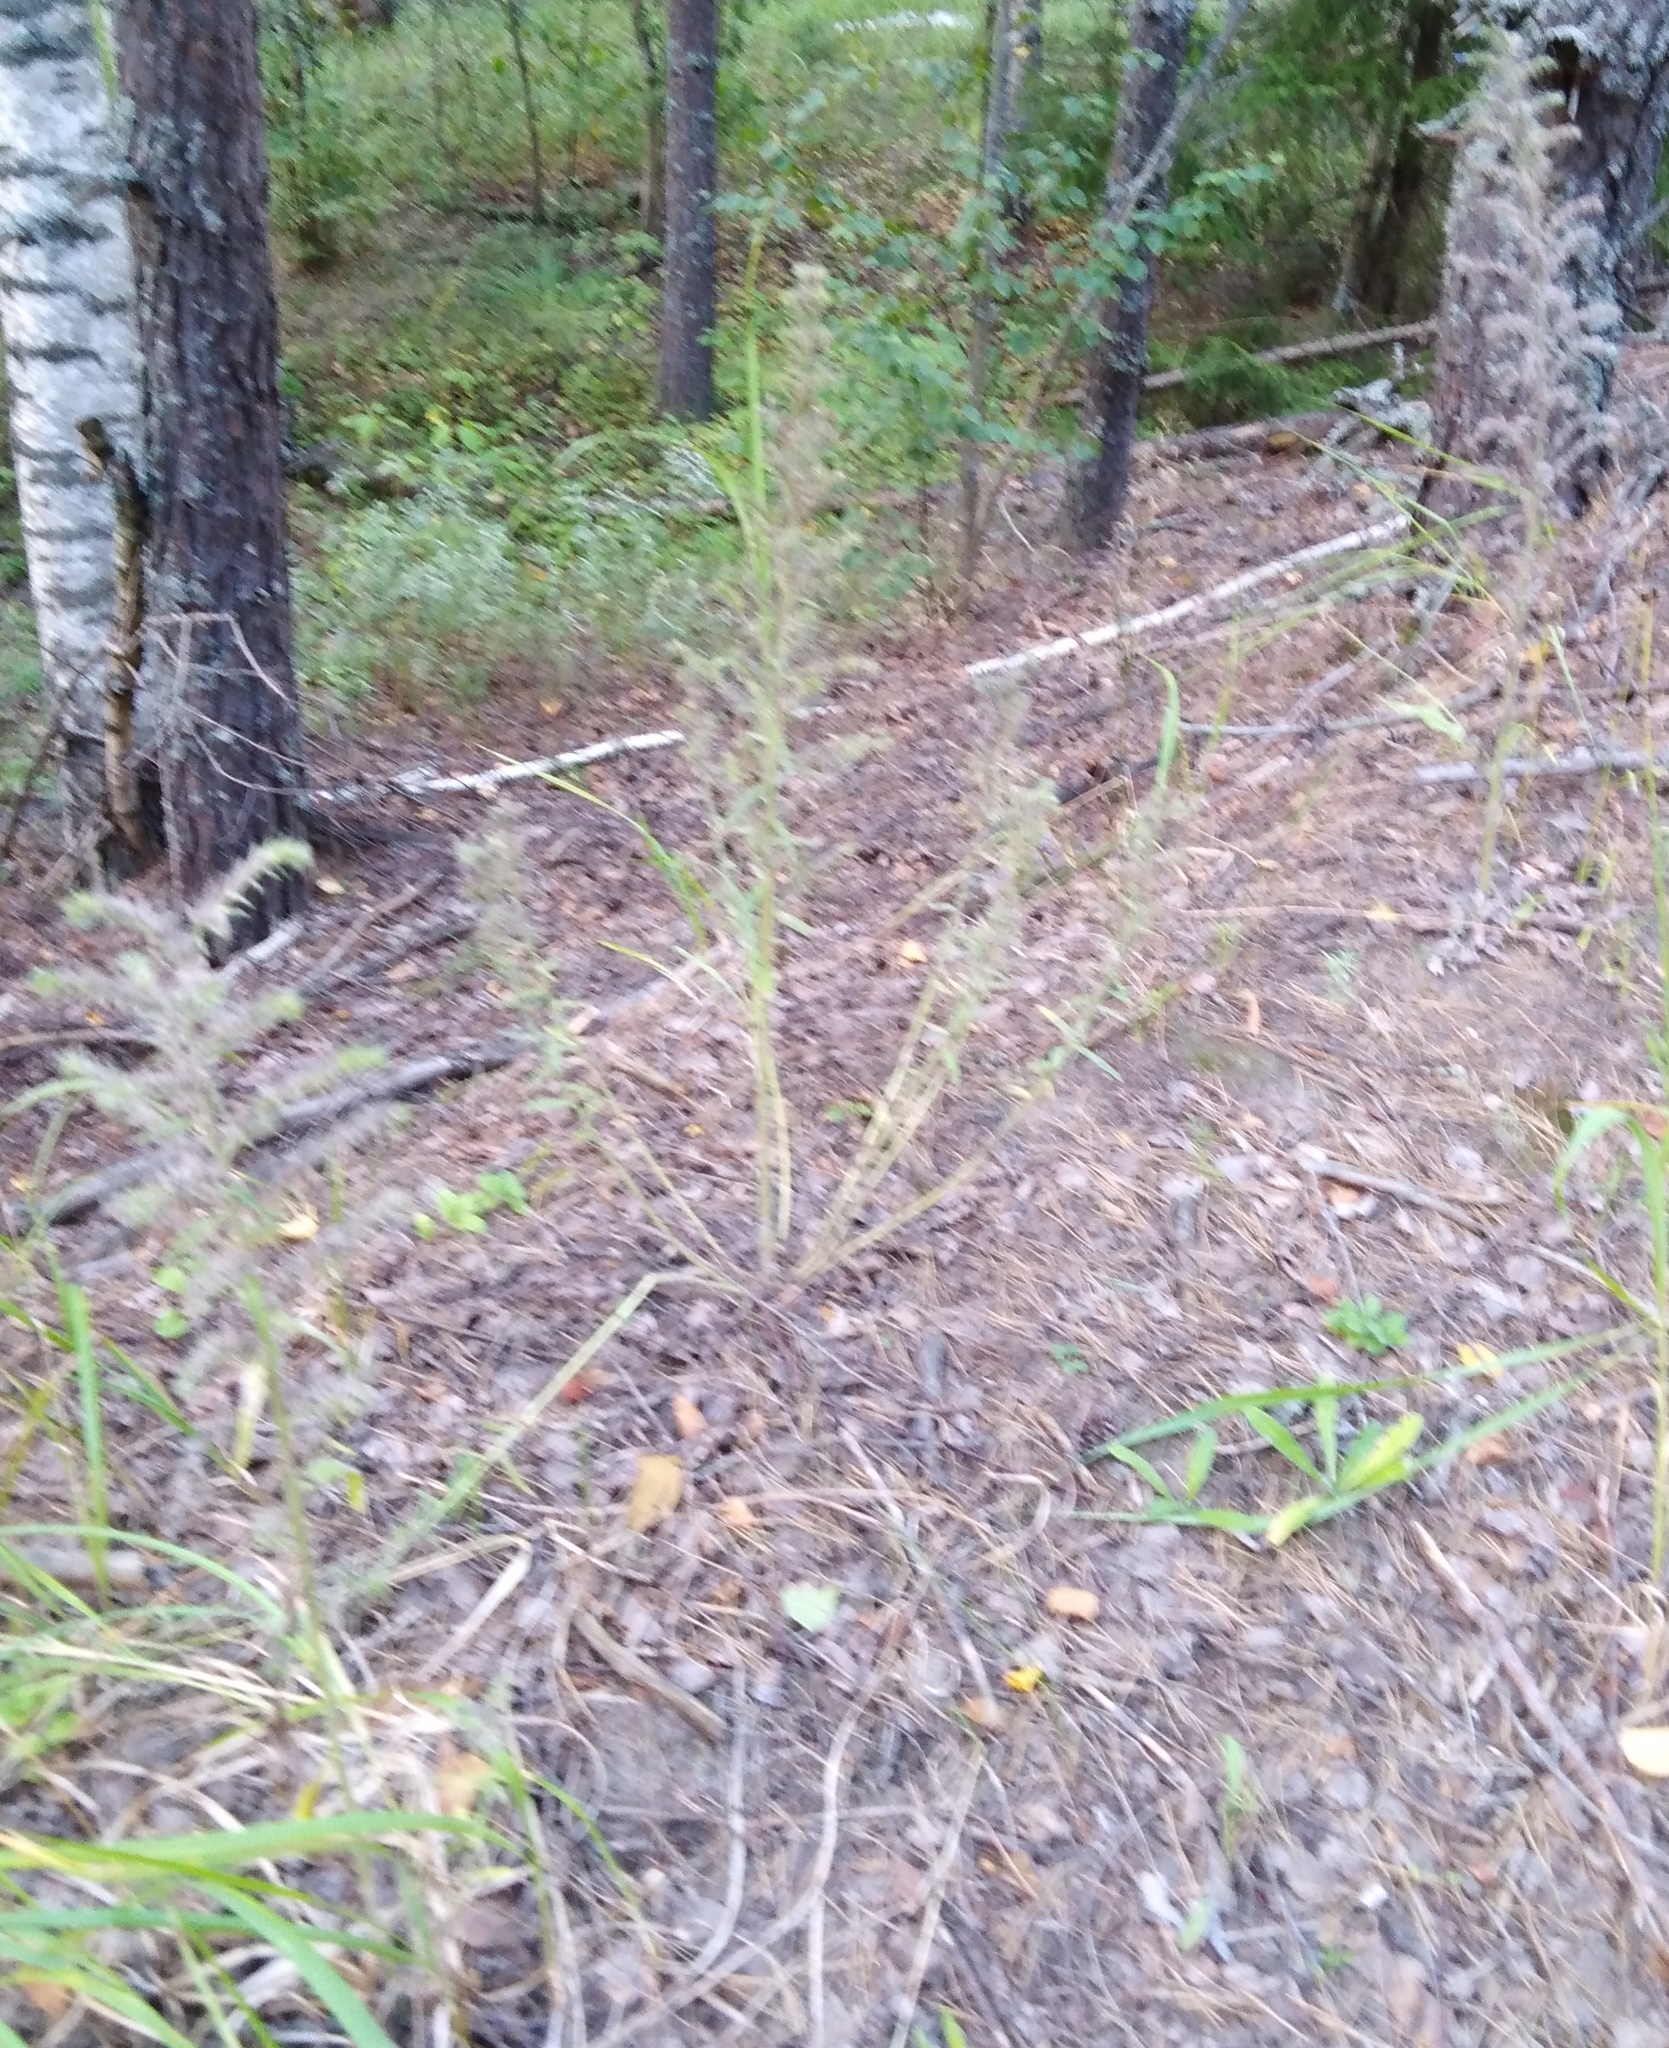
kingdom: Plantae
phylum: Tracheophyta
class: Magnoliopsida
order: Boraginales
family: Boraginaceae
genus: Echium
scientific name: Echium vulgare
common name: Common viper's bugloss
